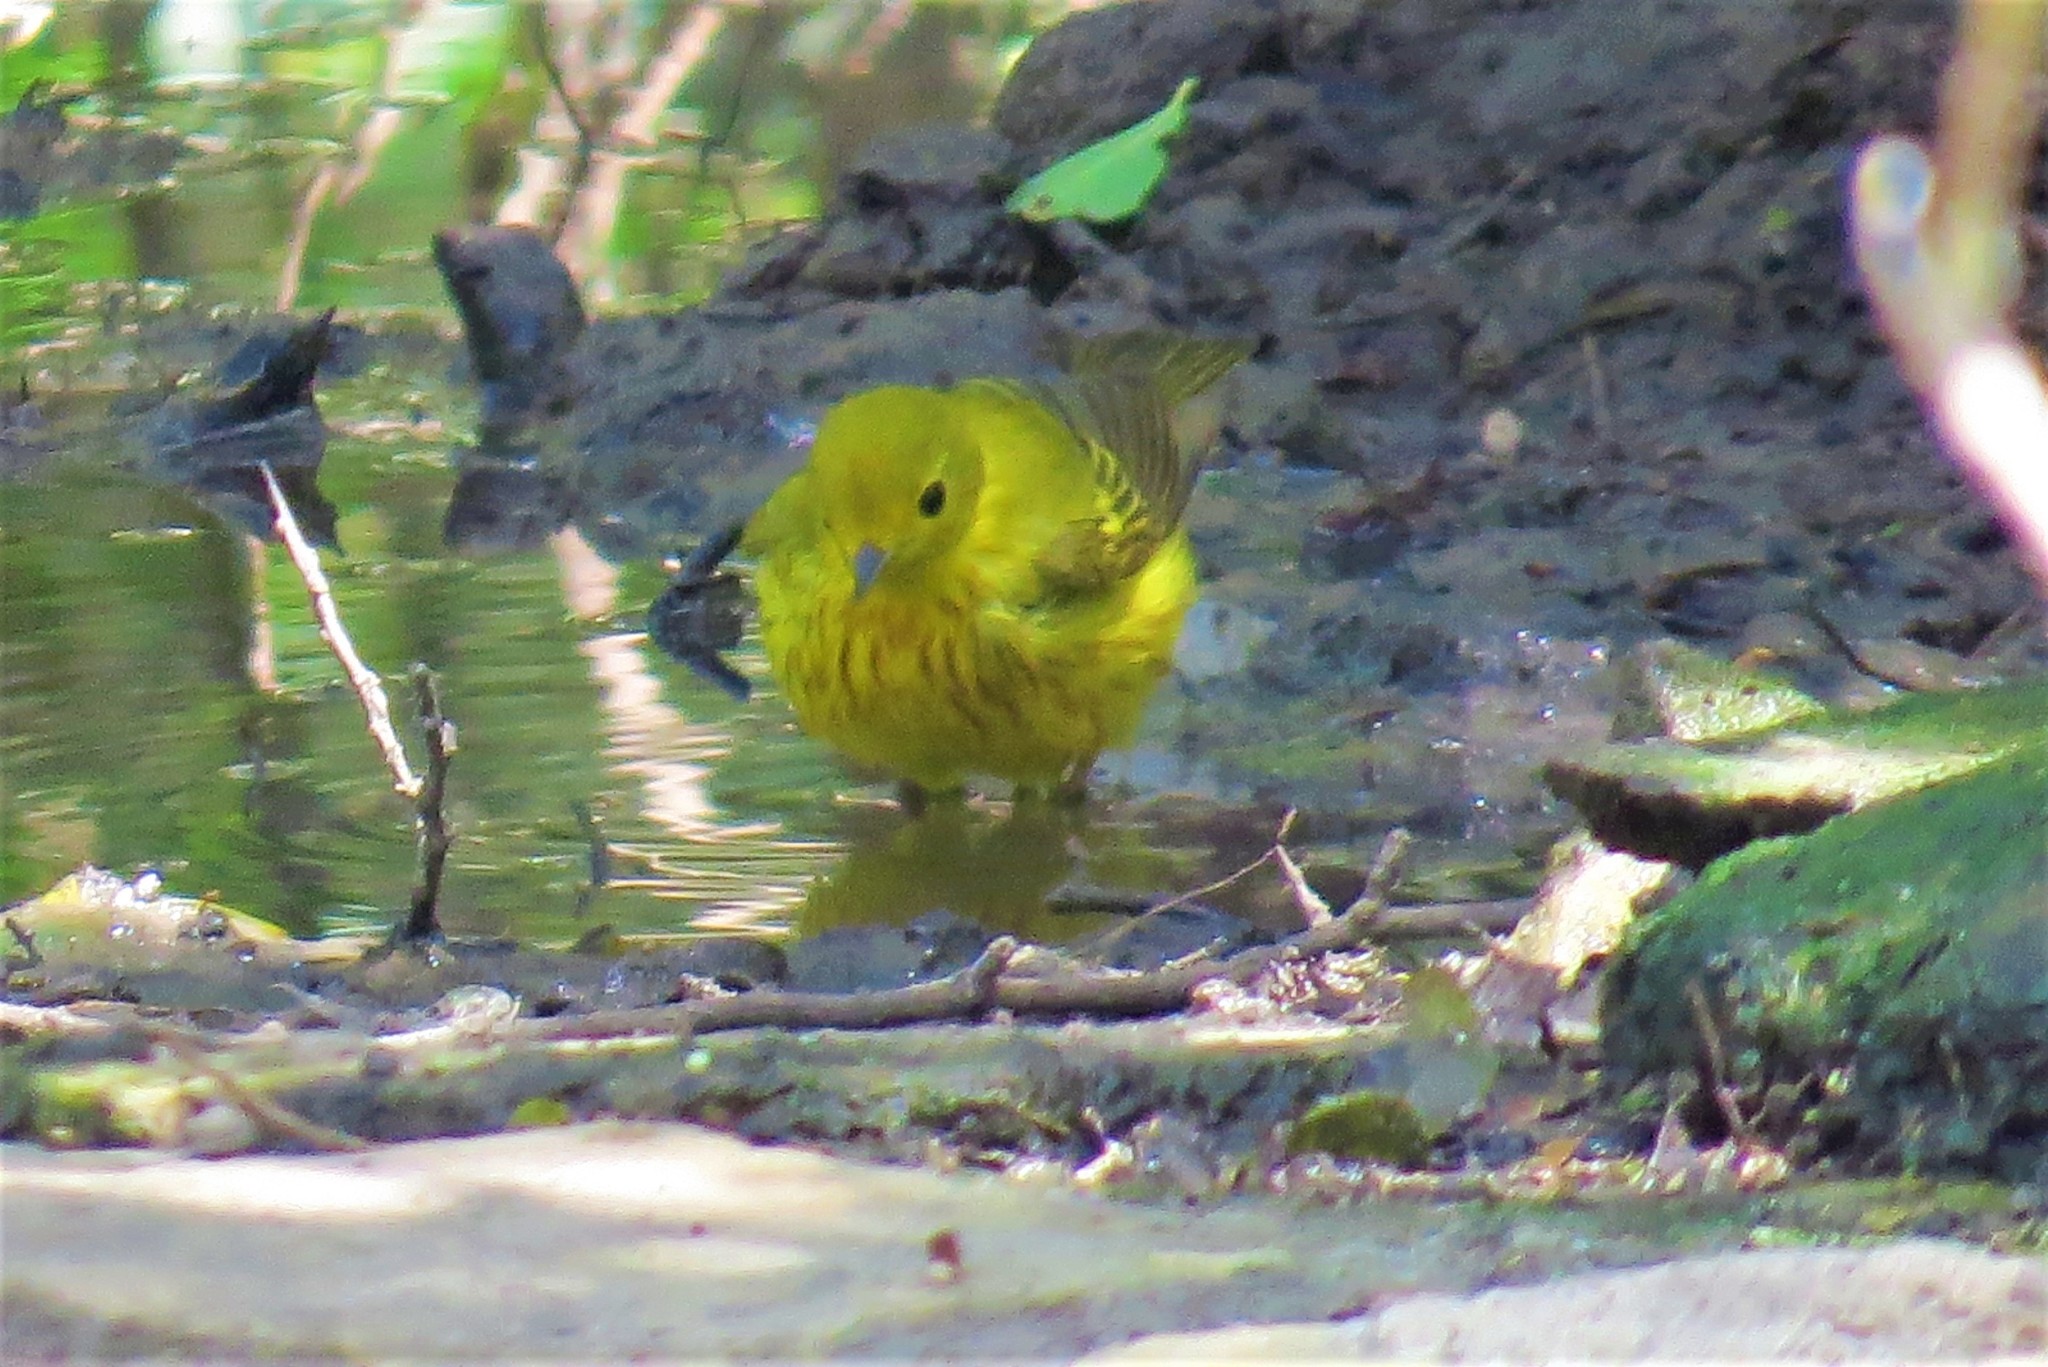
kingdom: Animalia
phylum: Chordata
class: Aves
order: Passeriformes
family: Parulidae
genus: Setophaga
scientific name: Setophaga petechia
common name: Yellow warbler
